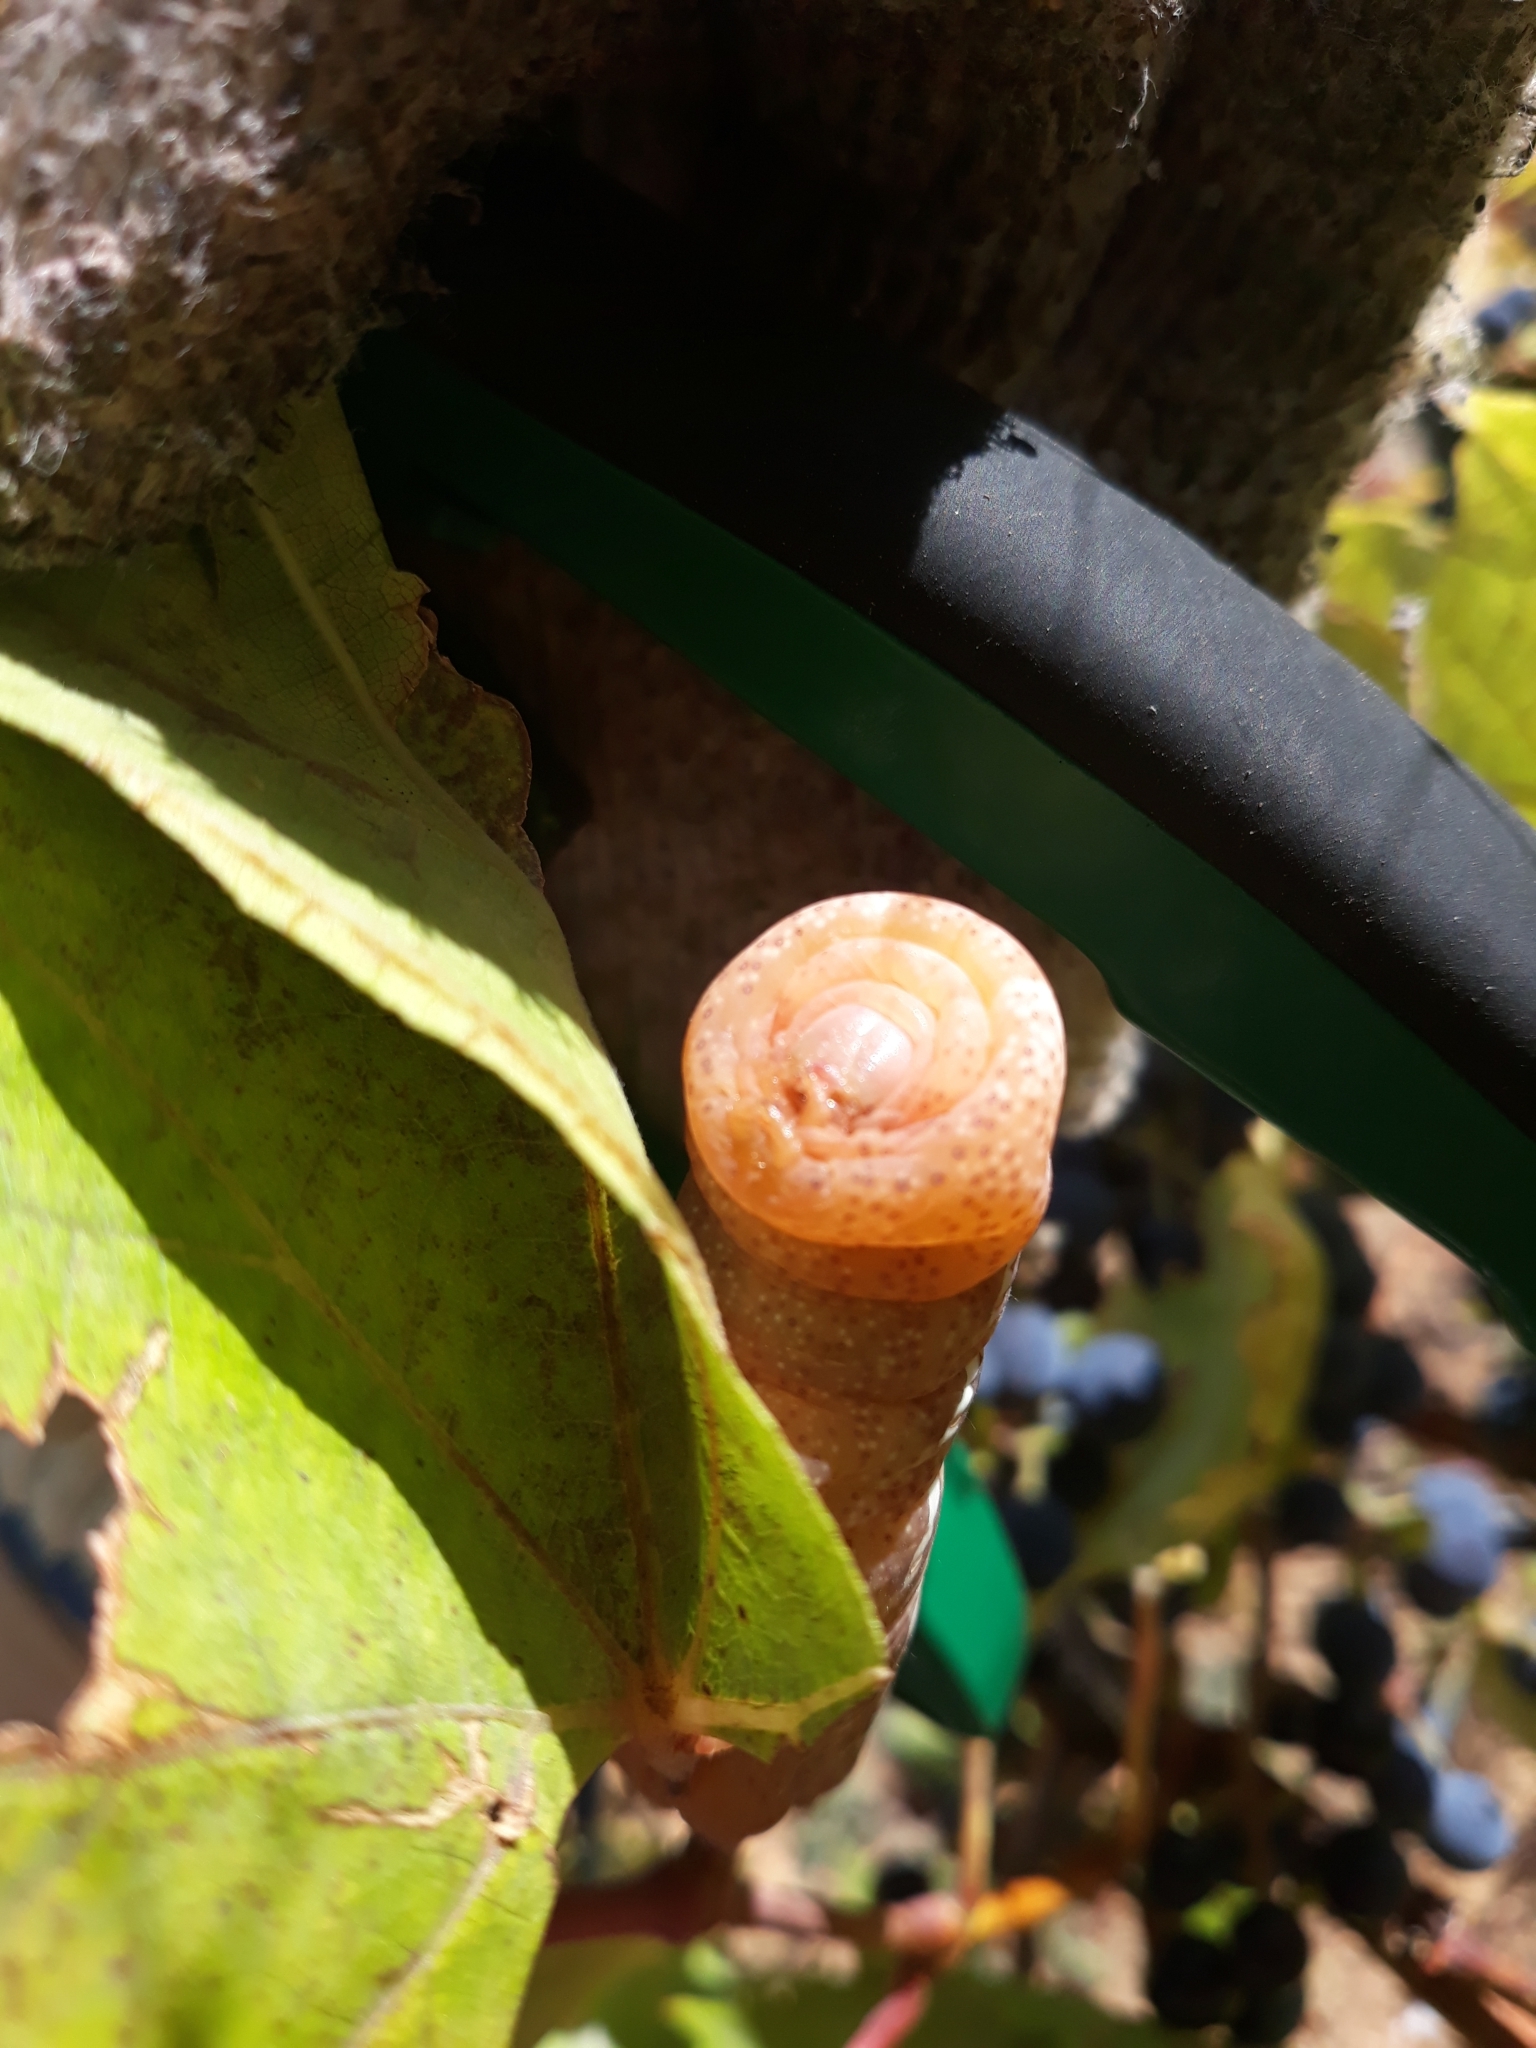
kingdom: Animalia
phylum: Arthropoda
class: Insecta
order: Lepidoptera
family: Sphingidae
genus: Eumorpha
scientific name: Eumorpha achemon
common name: Achemon sphinx
